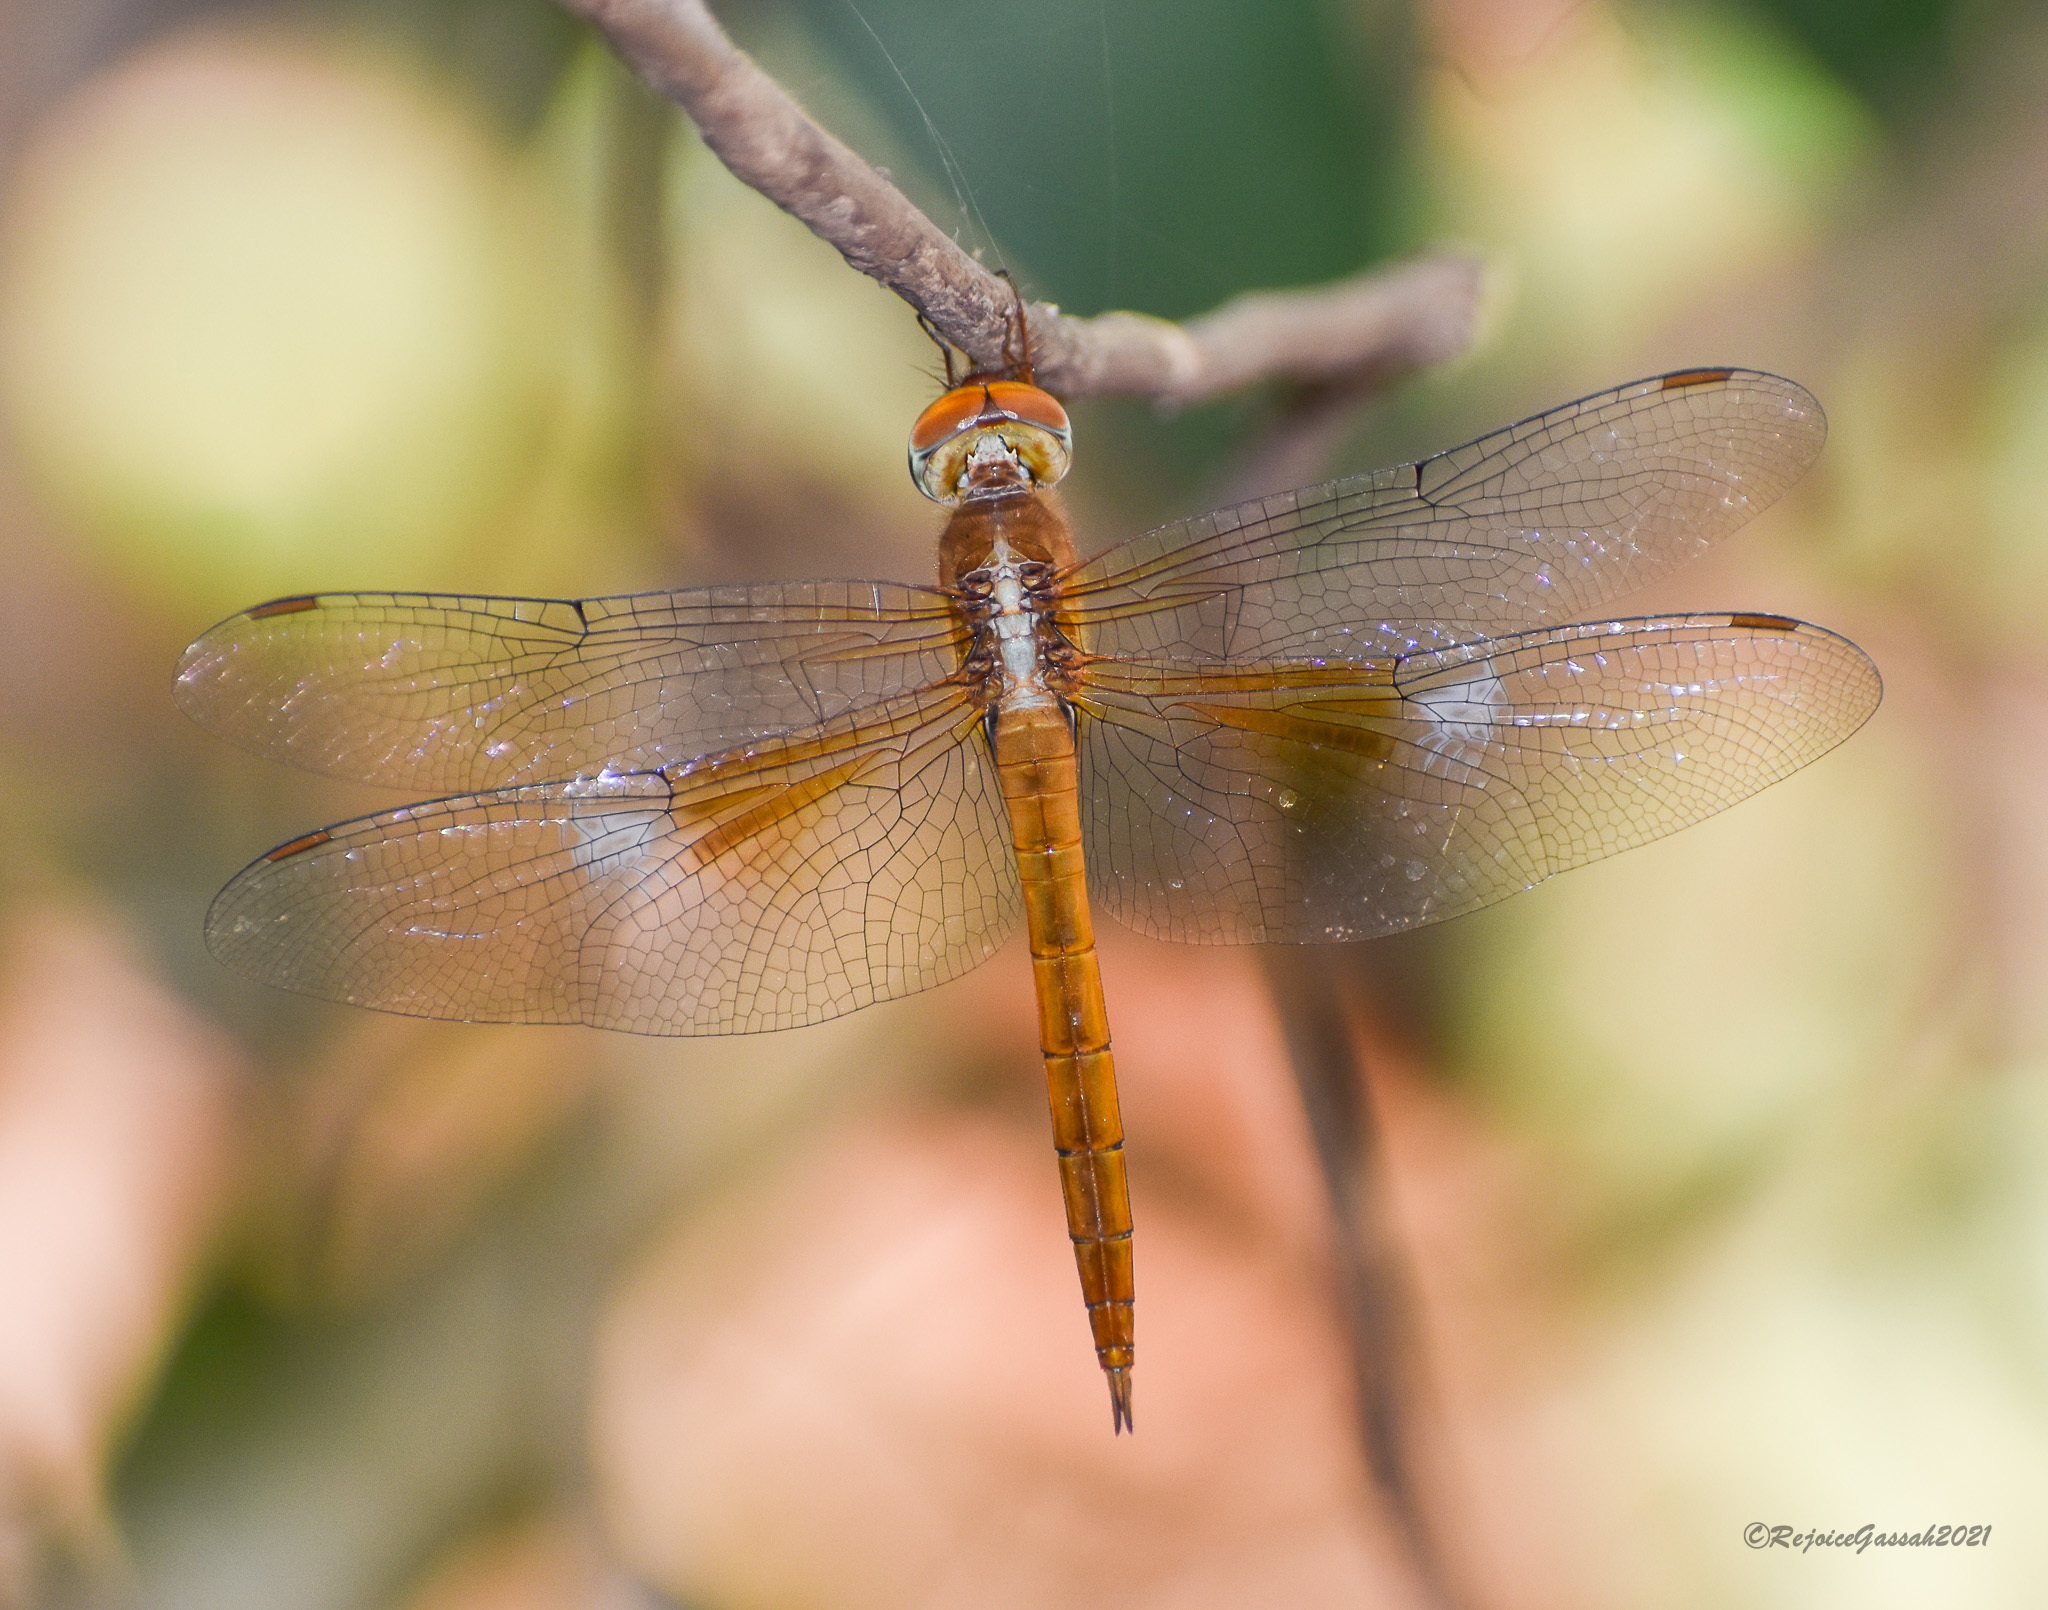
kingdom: Animalia
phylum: Arthropoda
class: Insecta
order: Odonata
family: Libellulidae
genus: Tholymis
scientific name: Tholymis tillarga
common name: Coral-tailed cloud wing
